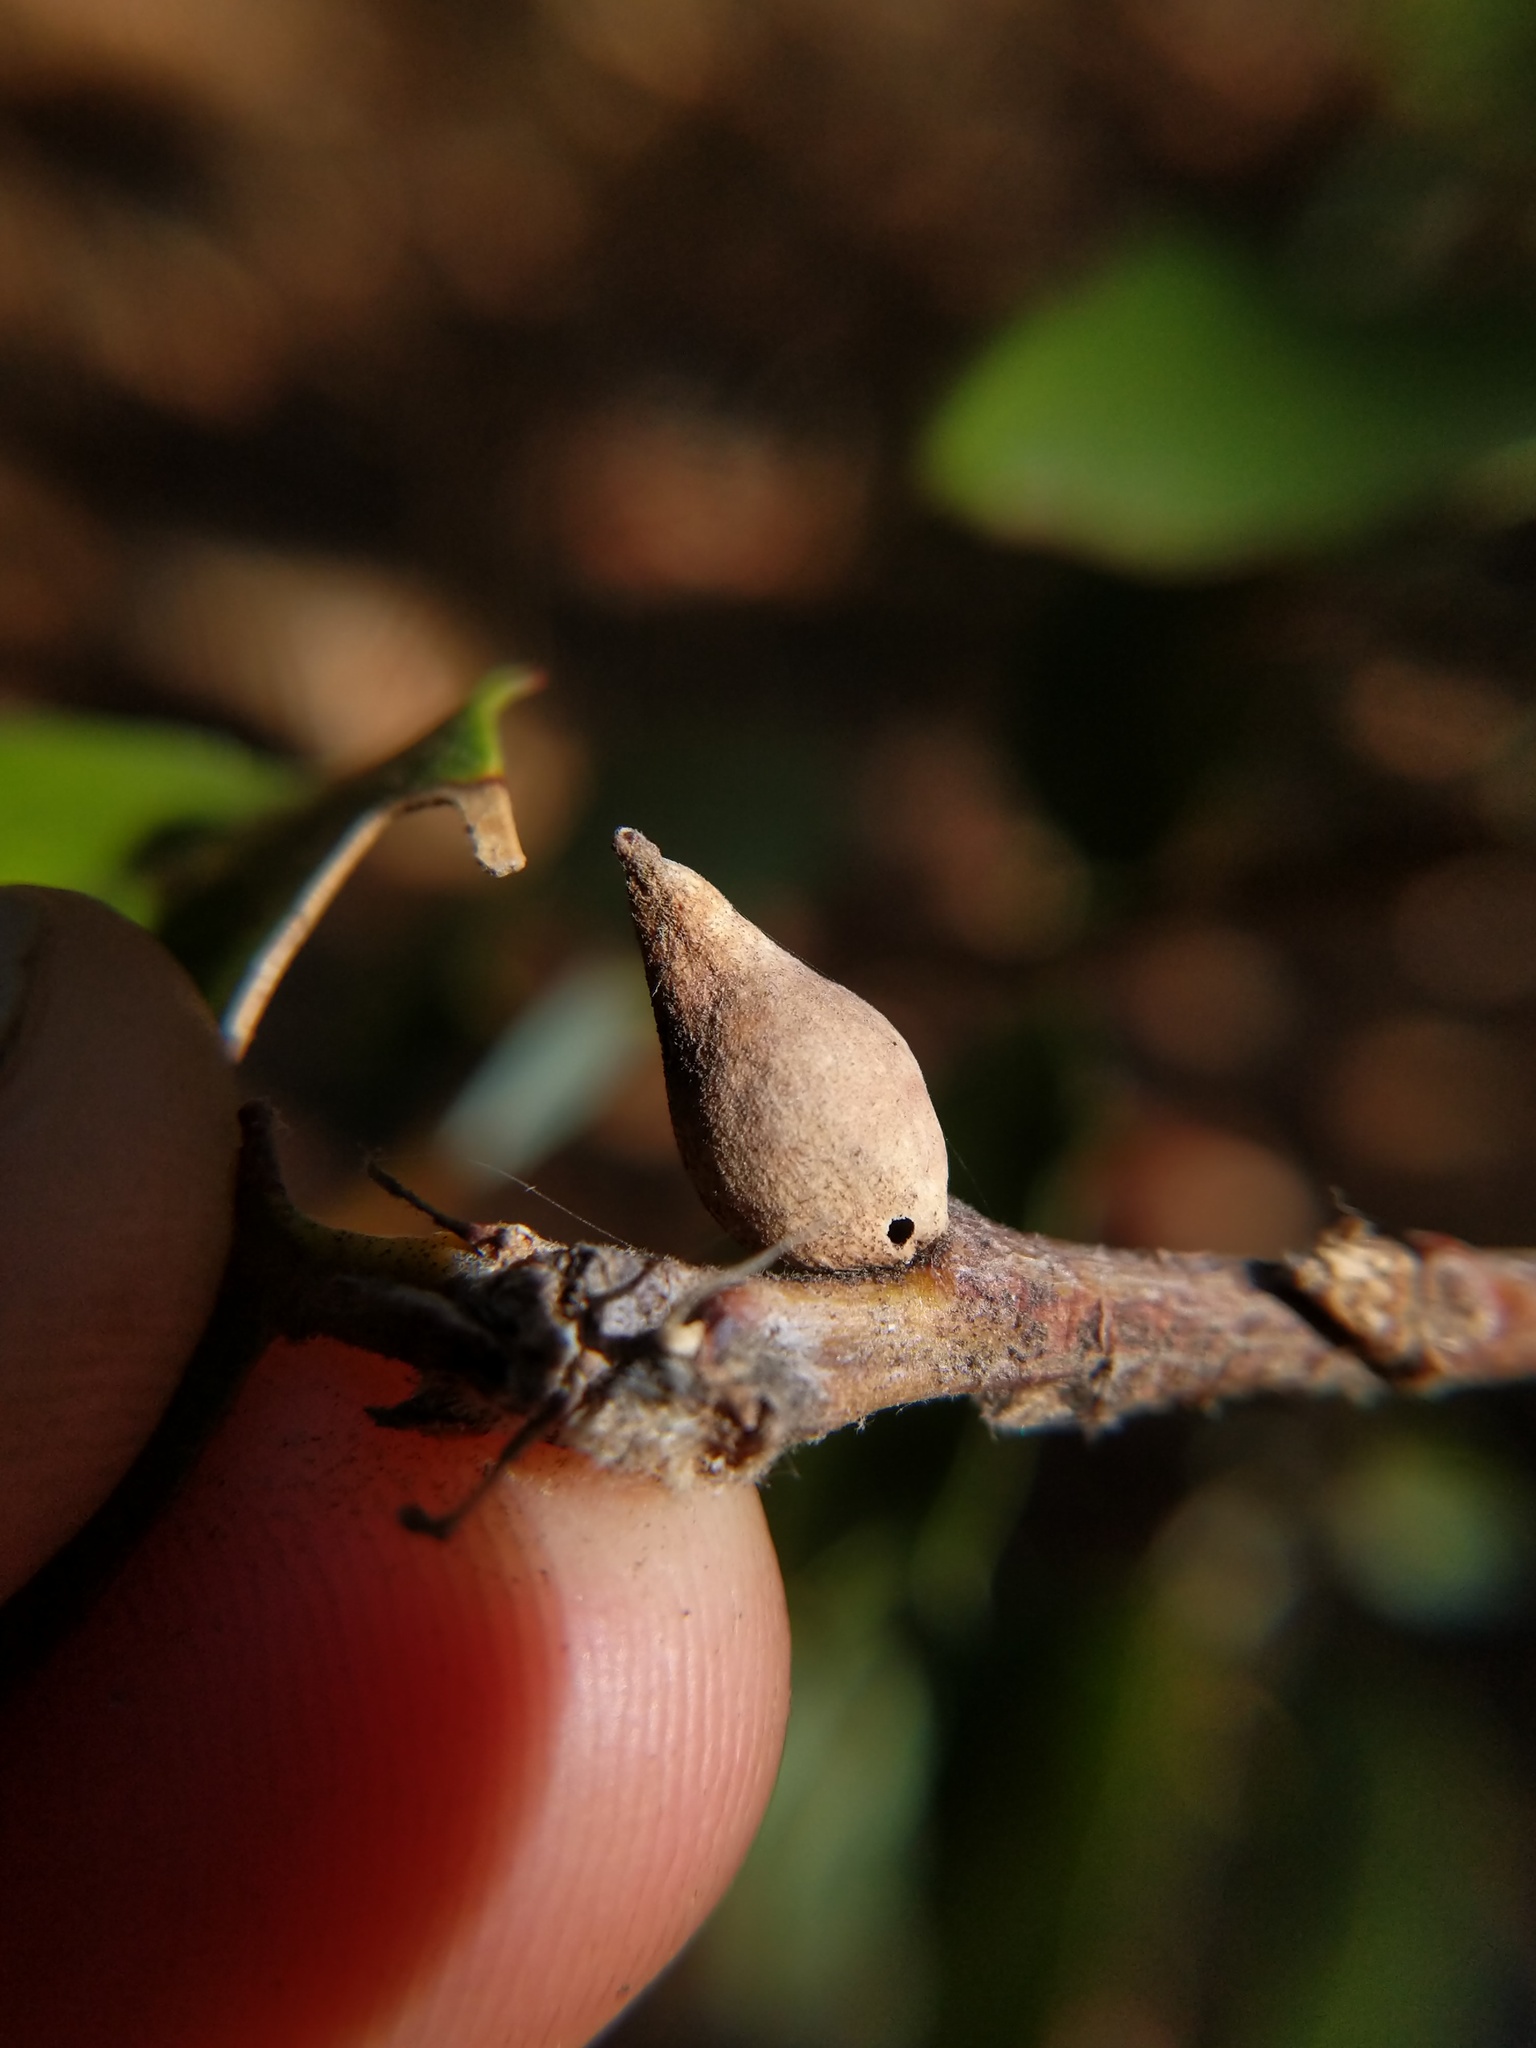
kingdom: Animalia
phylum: Arthropoda
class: Insecta
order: Hymenoptera
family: Cynipidae
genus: Heteroecus
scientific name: Heteroecus pacificus
